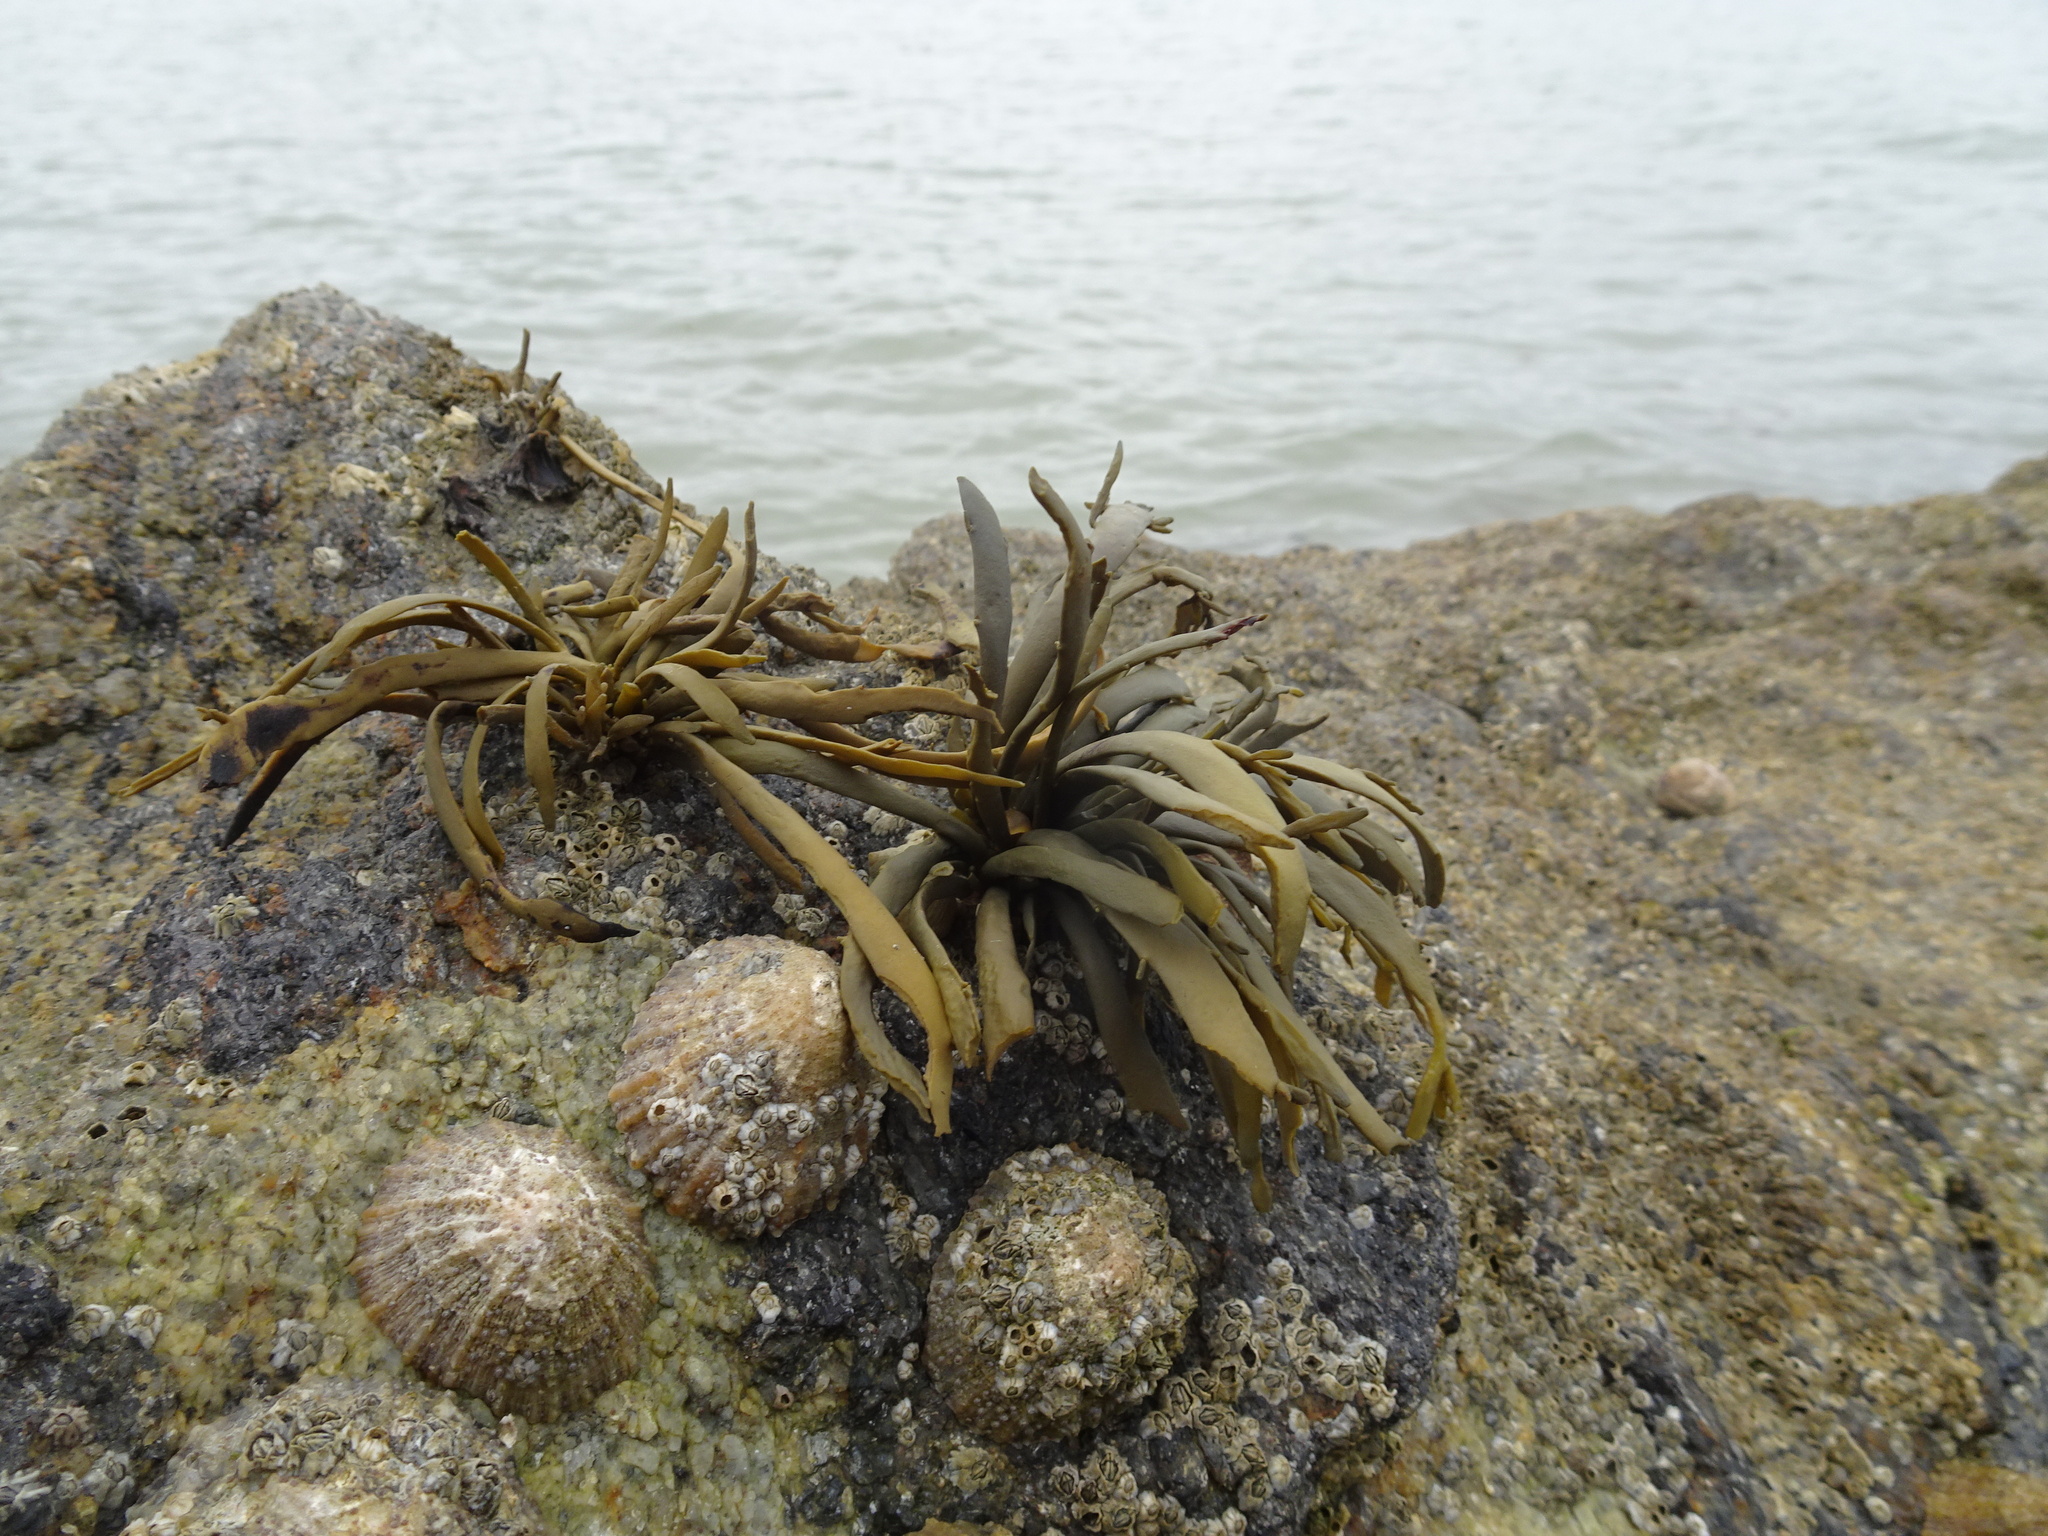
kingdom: Animalia
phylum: Mollusca
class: Gastropoda
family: Patellidae
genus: Patella
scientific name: Patella vulgata
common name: Common limpet
